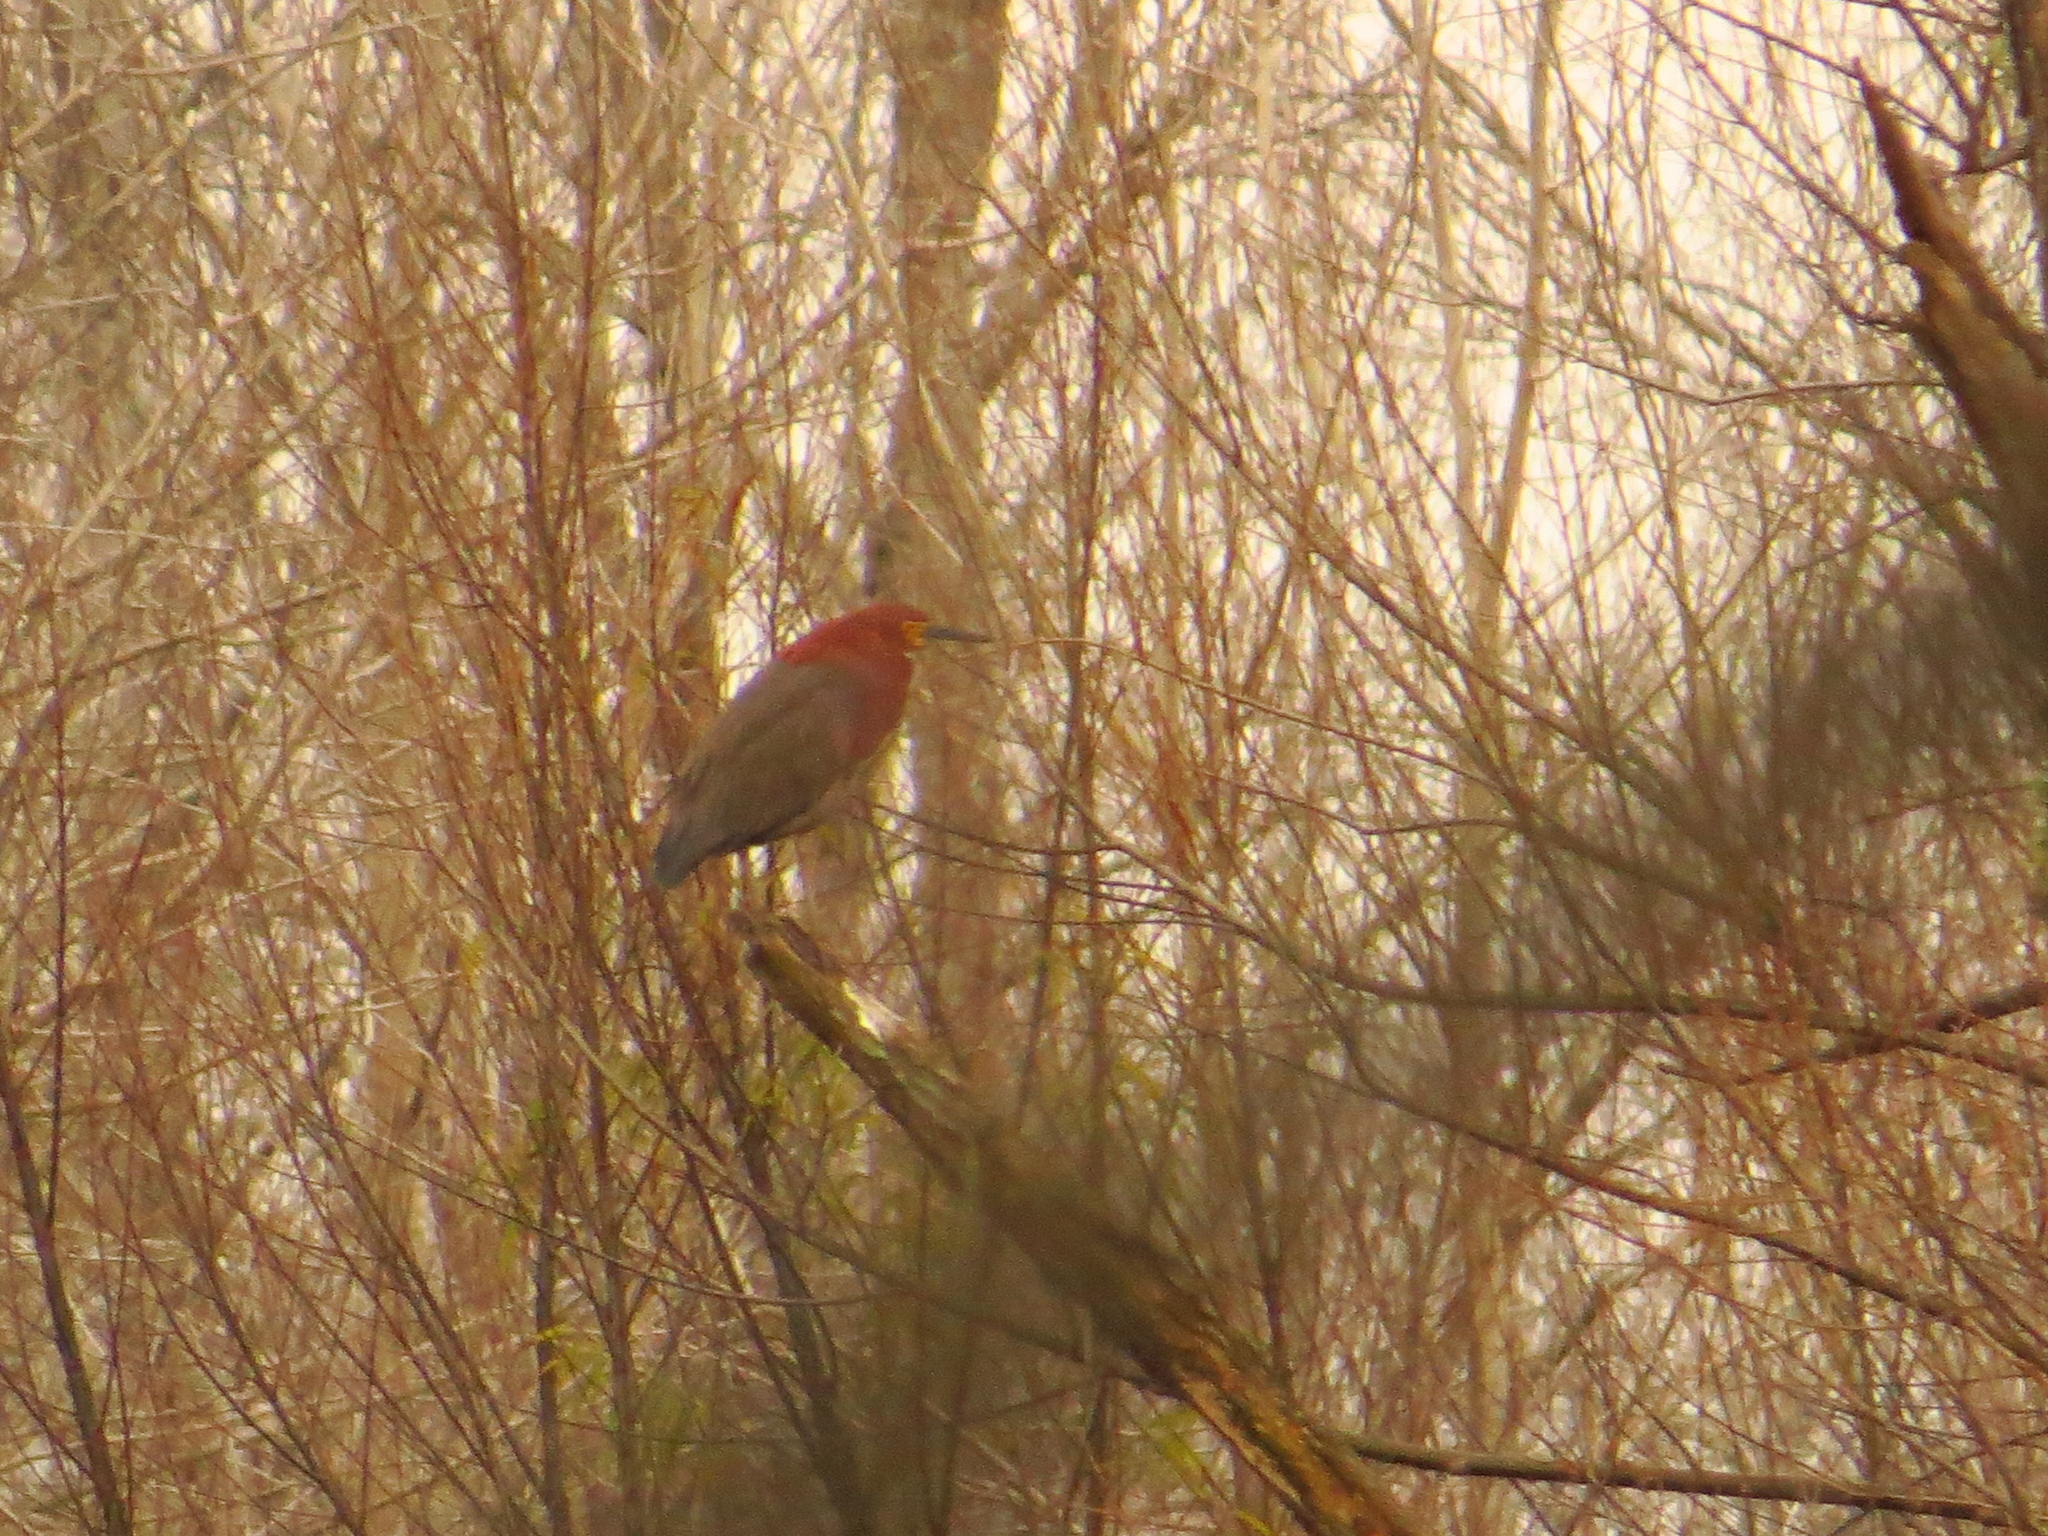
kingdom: Animalia
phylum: Chordata
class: Aves
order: Pelecaniformes
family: Ardeidae
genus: Tigrisoma
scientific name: Tigrisoma lineatum
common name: Rufescent tiger-heron
